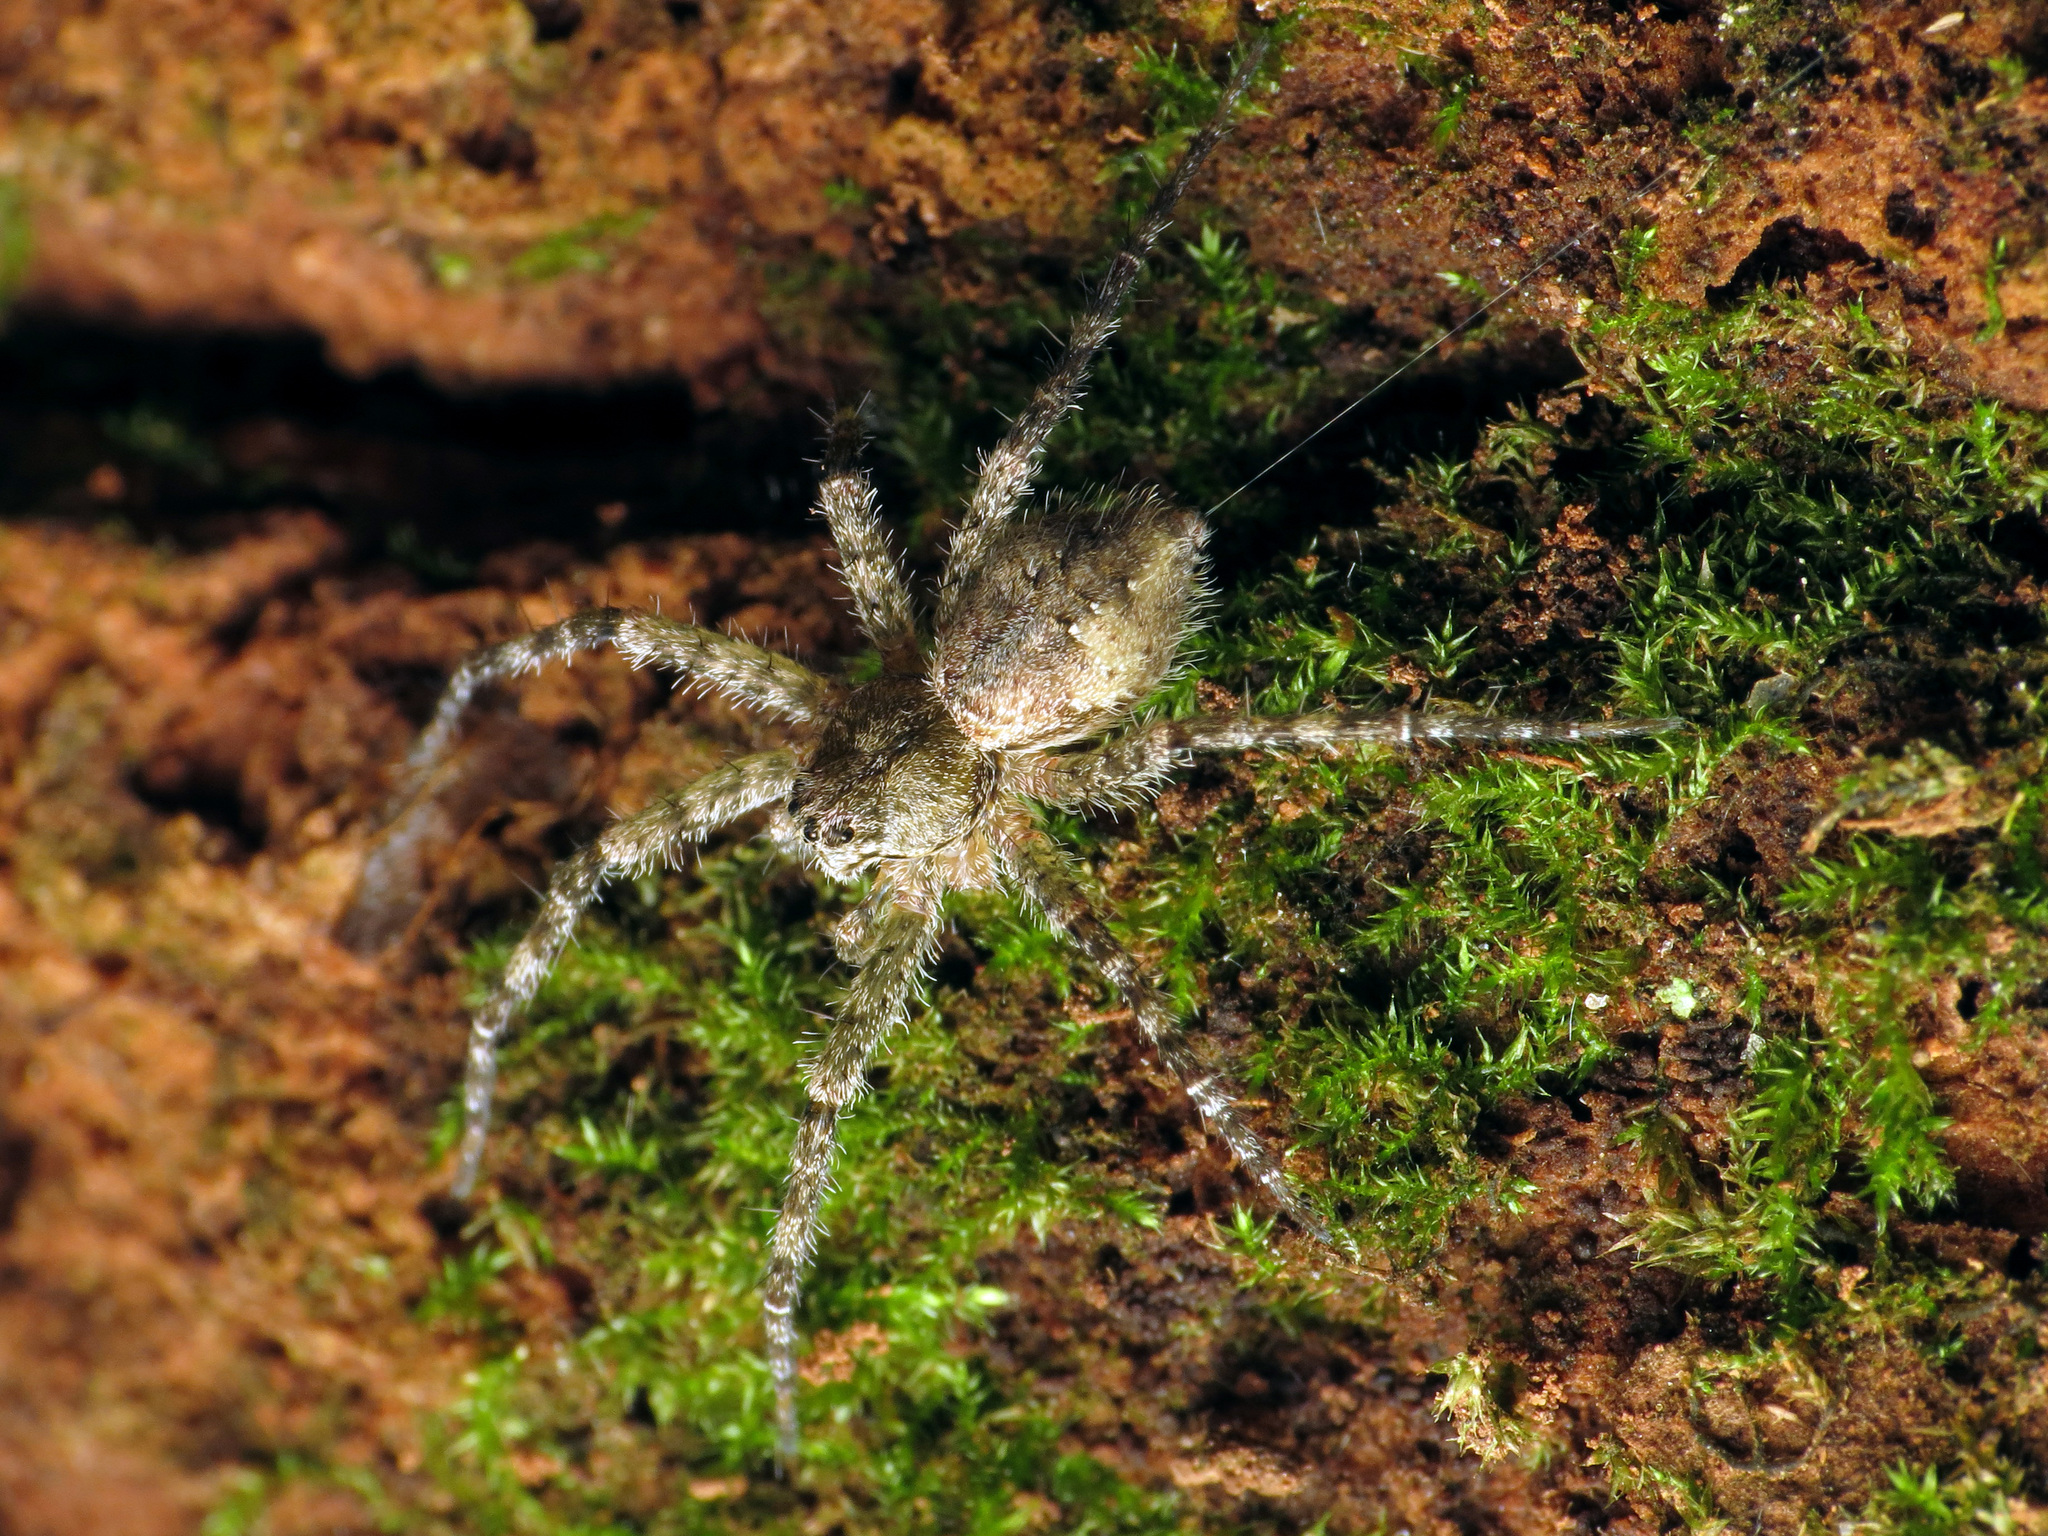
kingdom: Animalia
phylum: Arthropoda
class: Arachnida
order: Araneae
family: Pisauridae
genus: Dolomedes
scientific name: Dolomedes albineus
